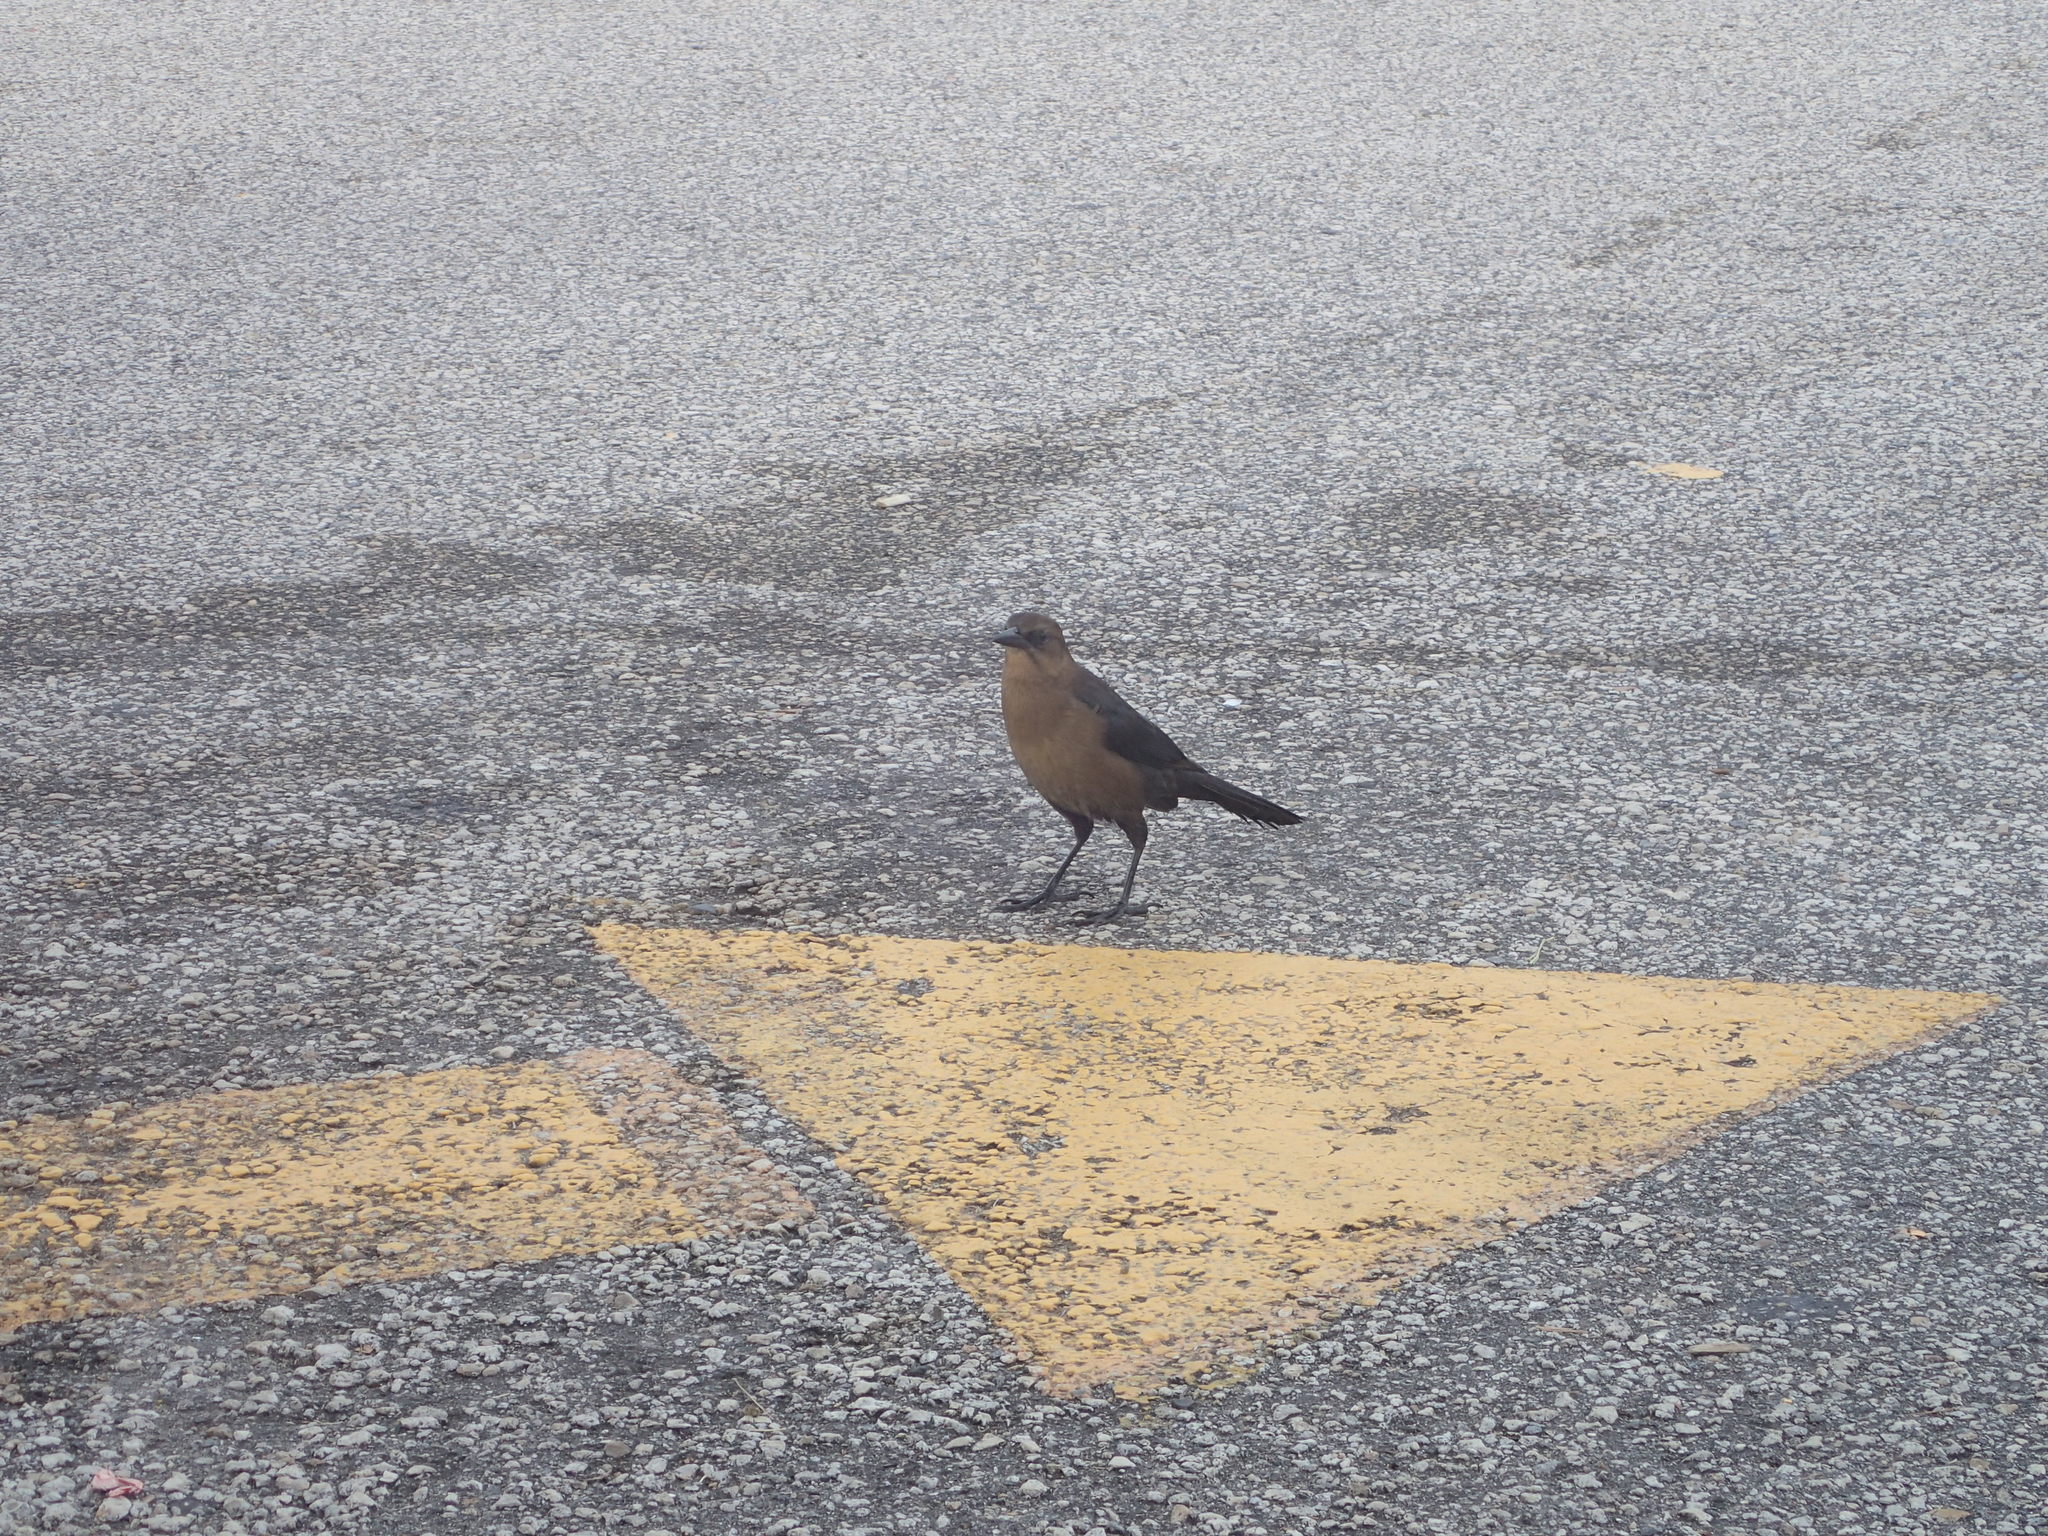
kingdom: Animalia
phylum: Chordata
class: Aves
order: Passeriformes
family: Icteridae
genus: Quiscalus
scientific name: Quiscalus major
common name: Boat-tailed grackle
